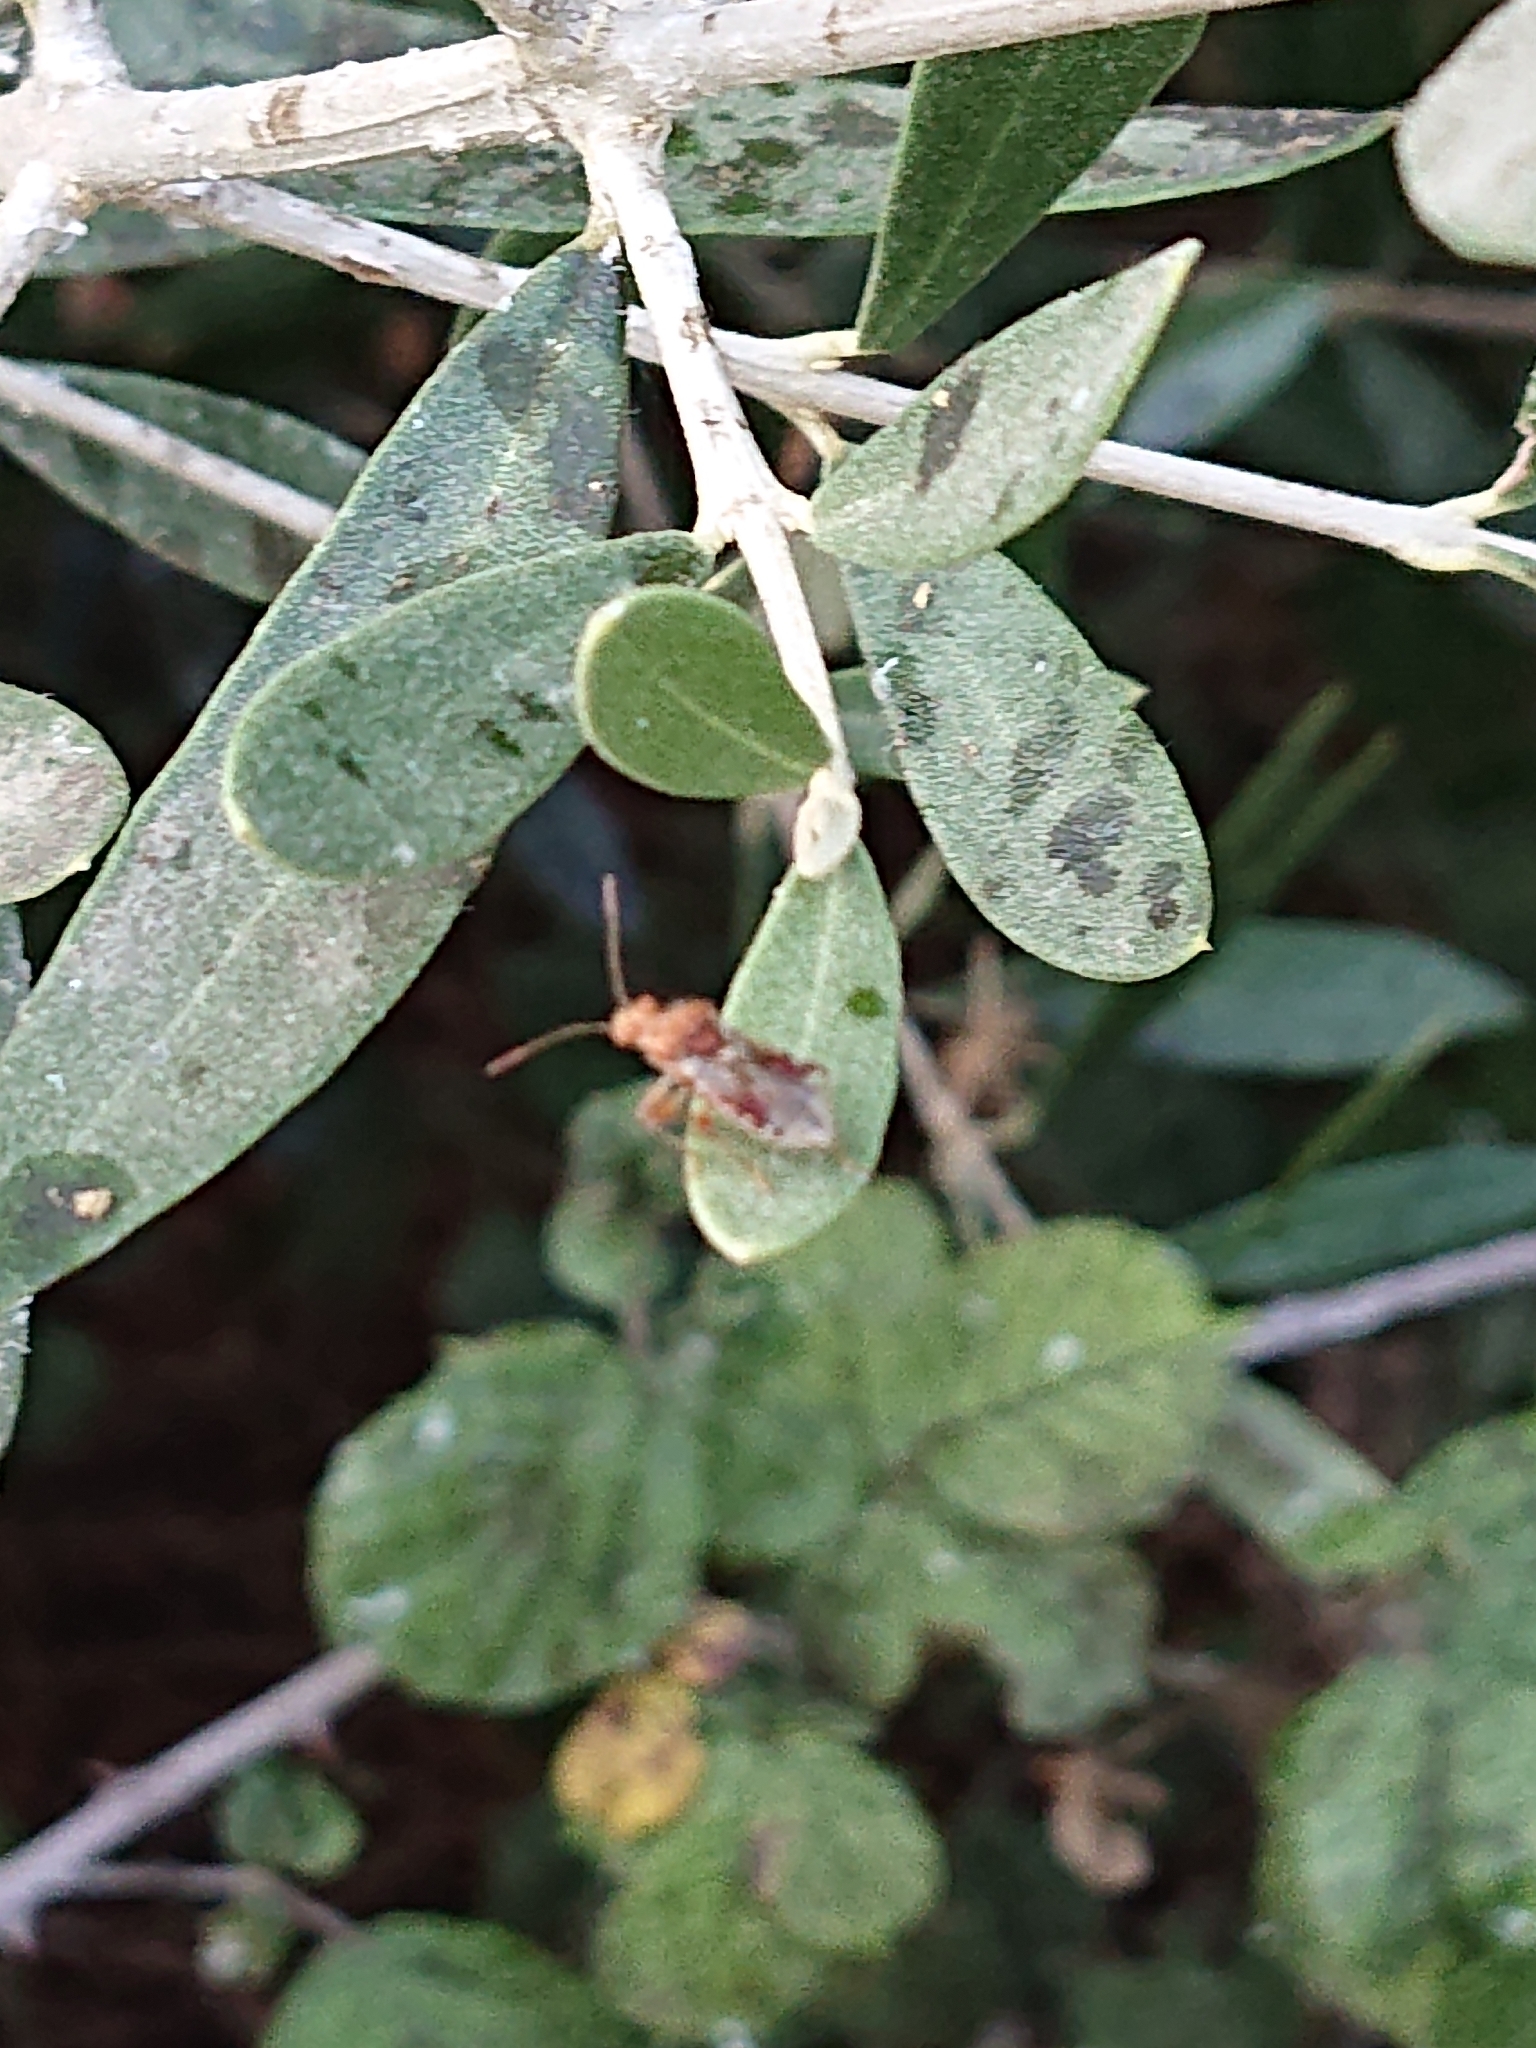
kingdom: Animalia
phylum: Arthropoda
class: Insecta
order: Hemiptera
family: Rhopalidae
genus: Rhopalus
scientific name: Rhopalus subrufus
